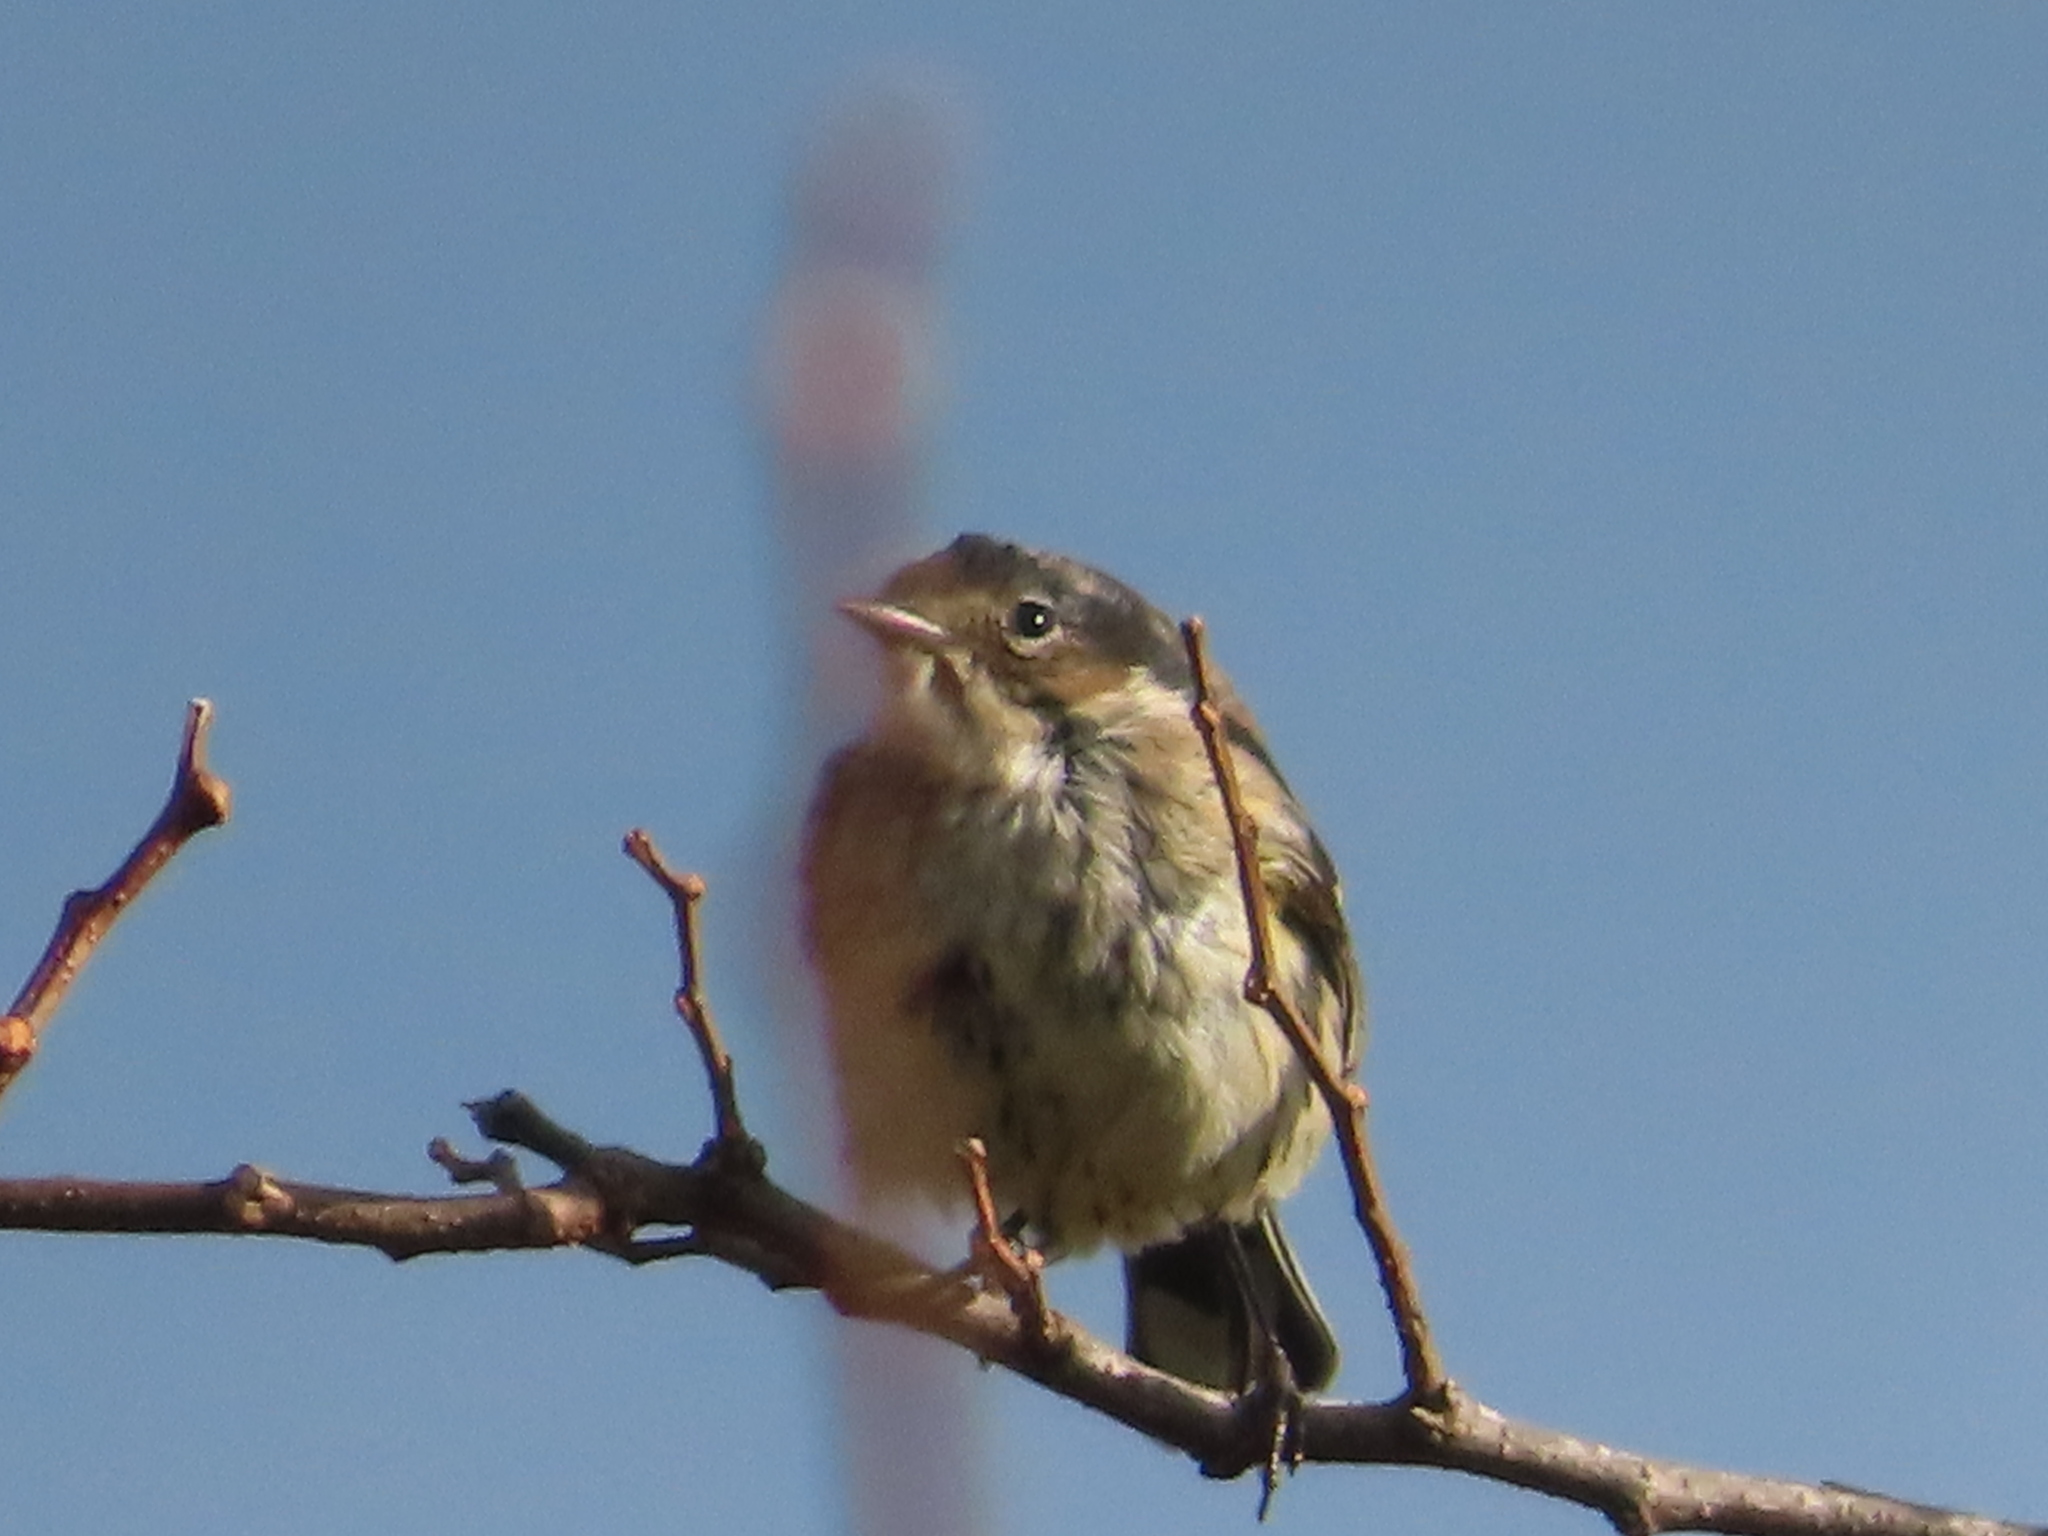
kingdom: Animalia
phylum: Chordata
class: Aves
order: Passeriformes
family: Parulidae
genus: Setophaga
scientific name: Setophaga coronata
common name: Myrtle warbler
